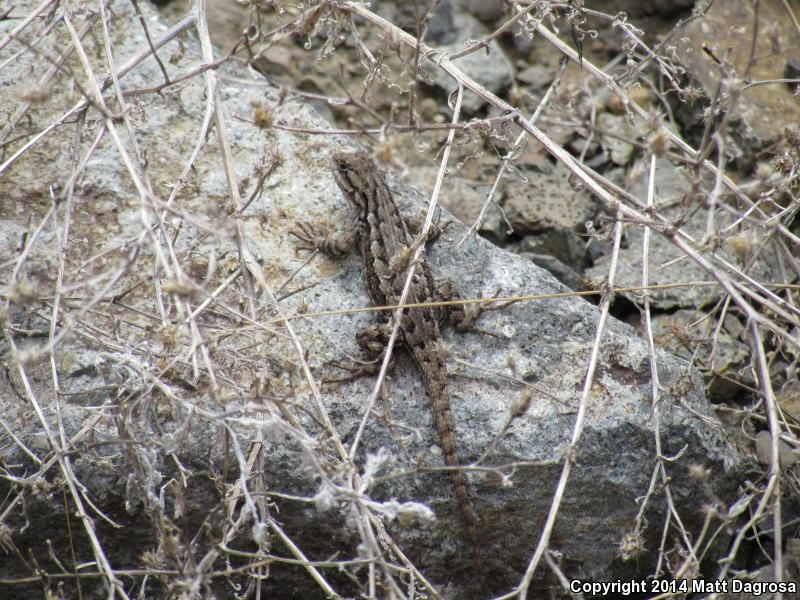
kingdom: Animalia
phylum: Chordata
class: Squamata
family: Phrynosomatidae
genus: Sceloporus
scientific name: Sceloporus occidentalis
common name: Western fence lizard
